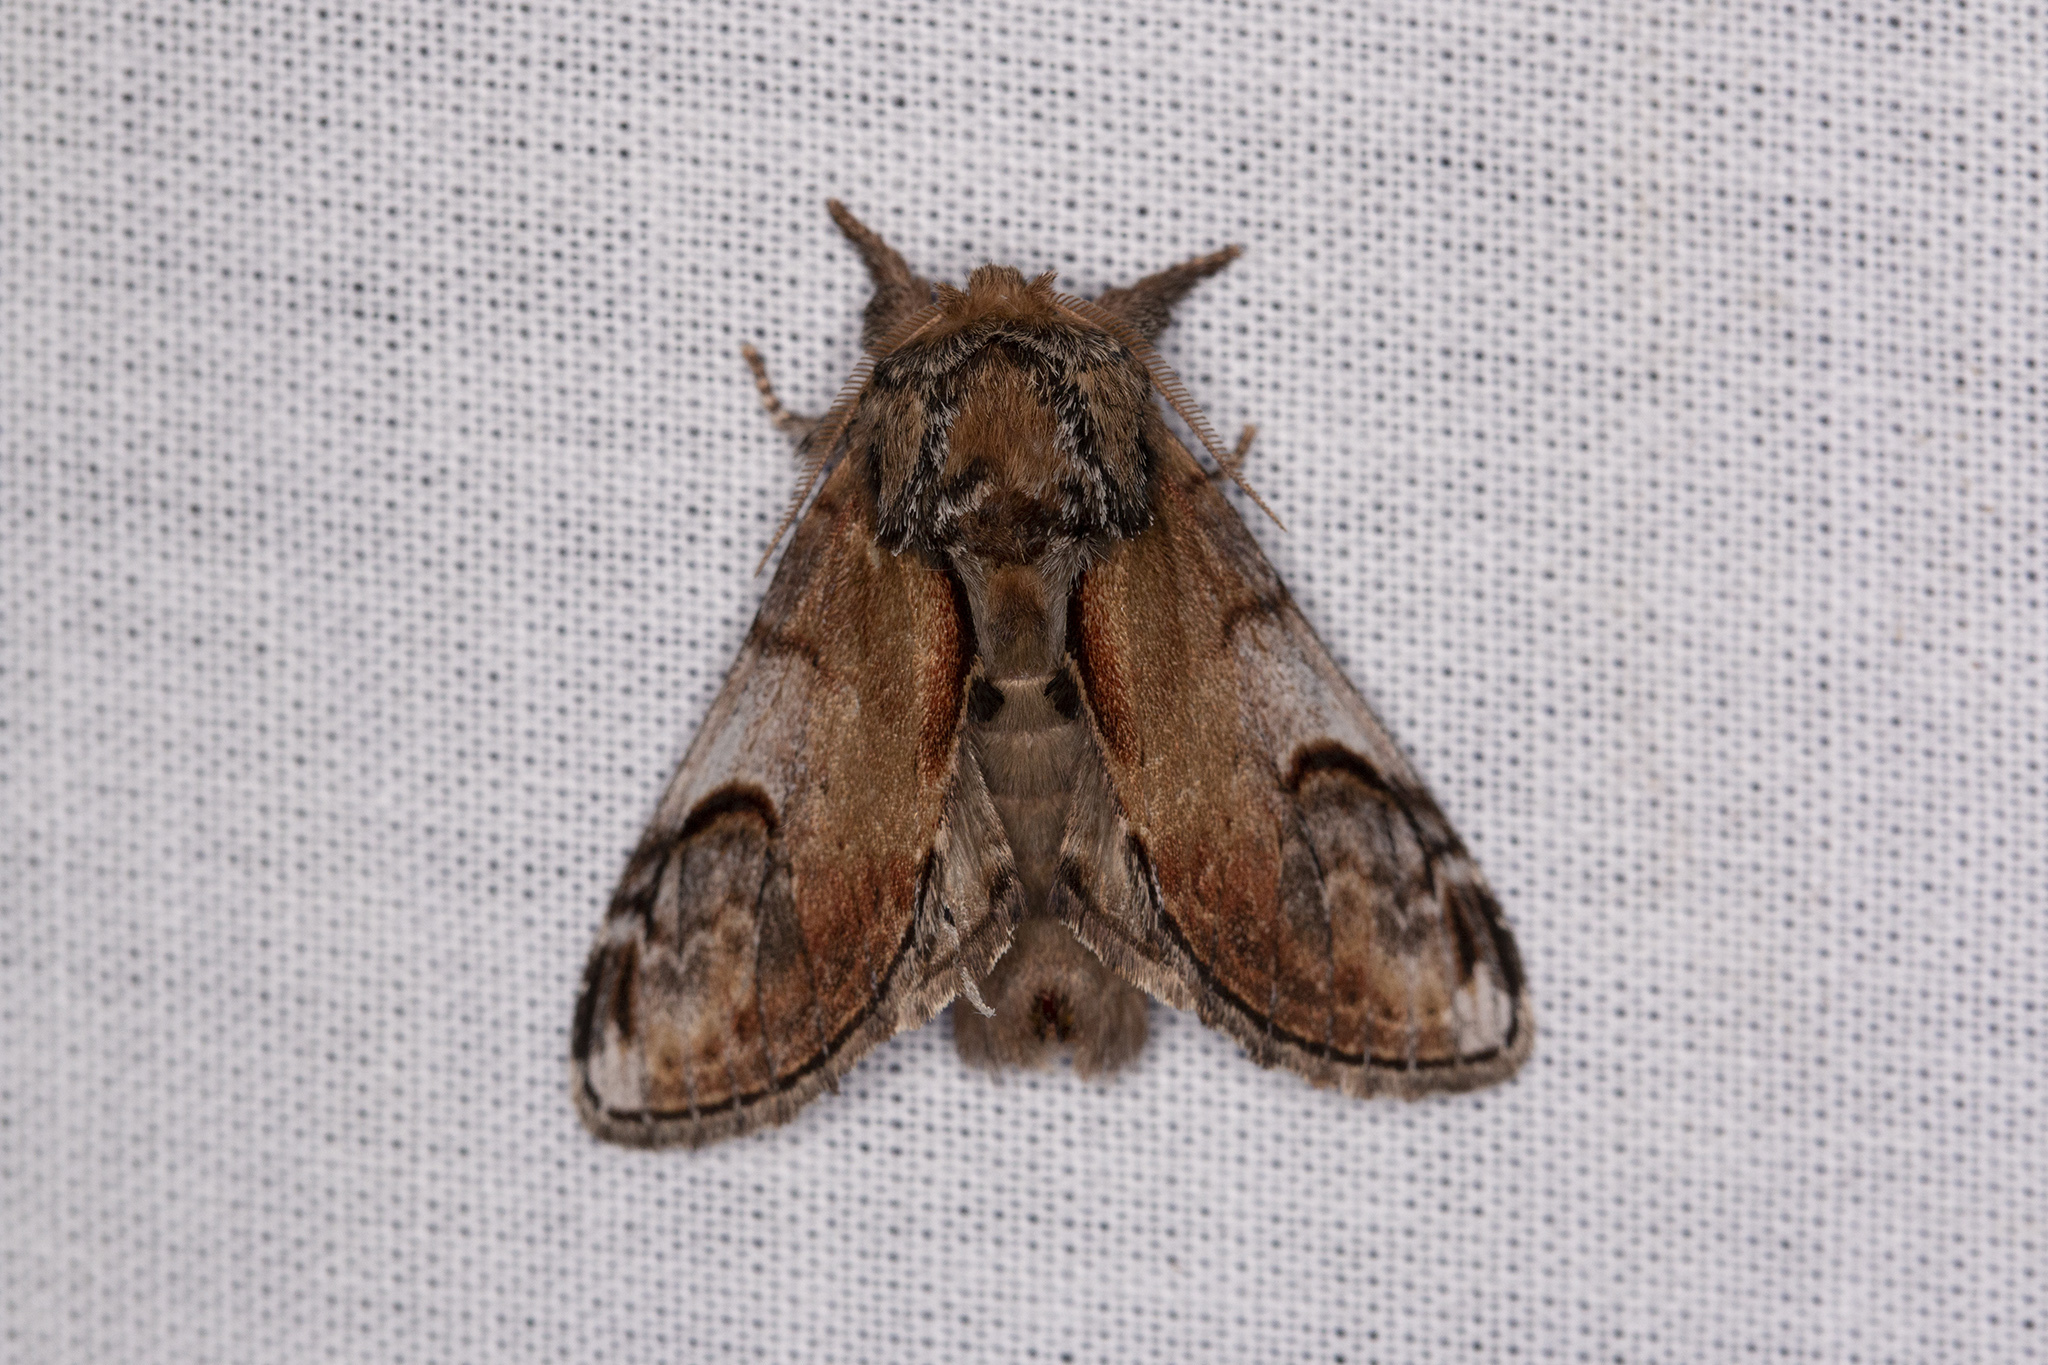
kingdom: Animalia
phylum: Arthropoda
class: Insecta
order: Lepidoptera
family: Notodontidae
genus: Notodonta
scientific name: Notodonta ziczac
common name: Pebble prominent
